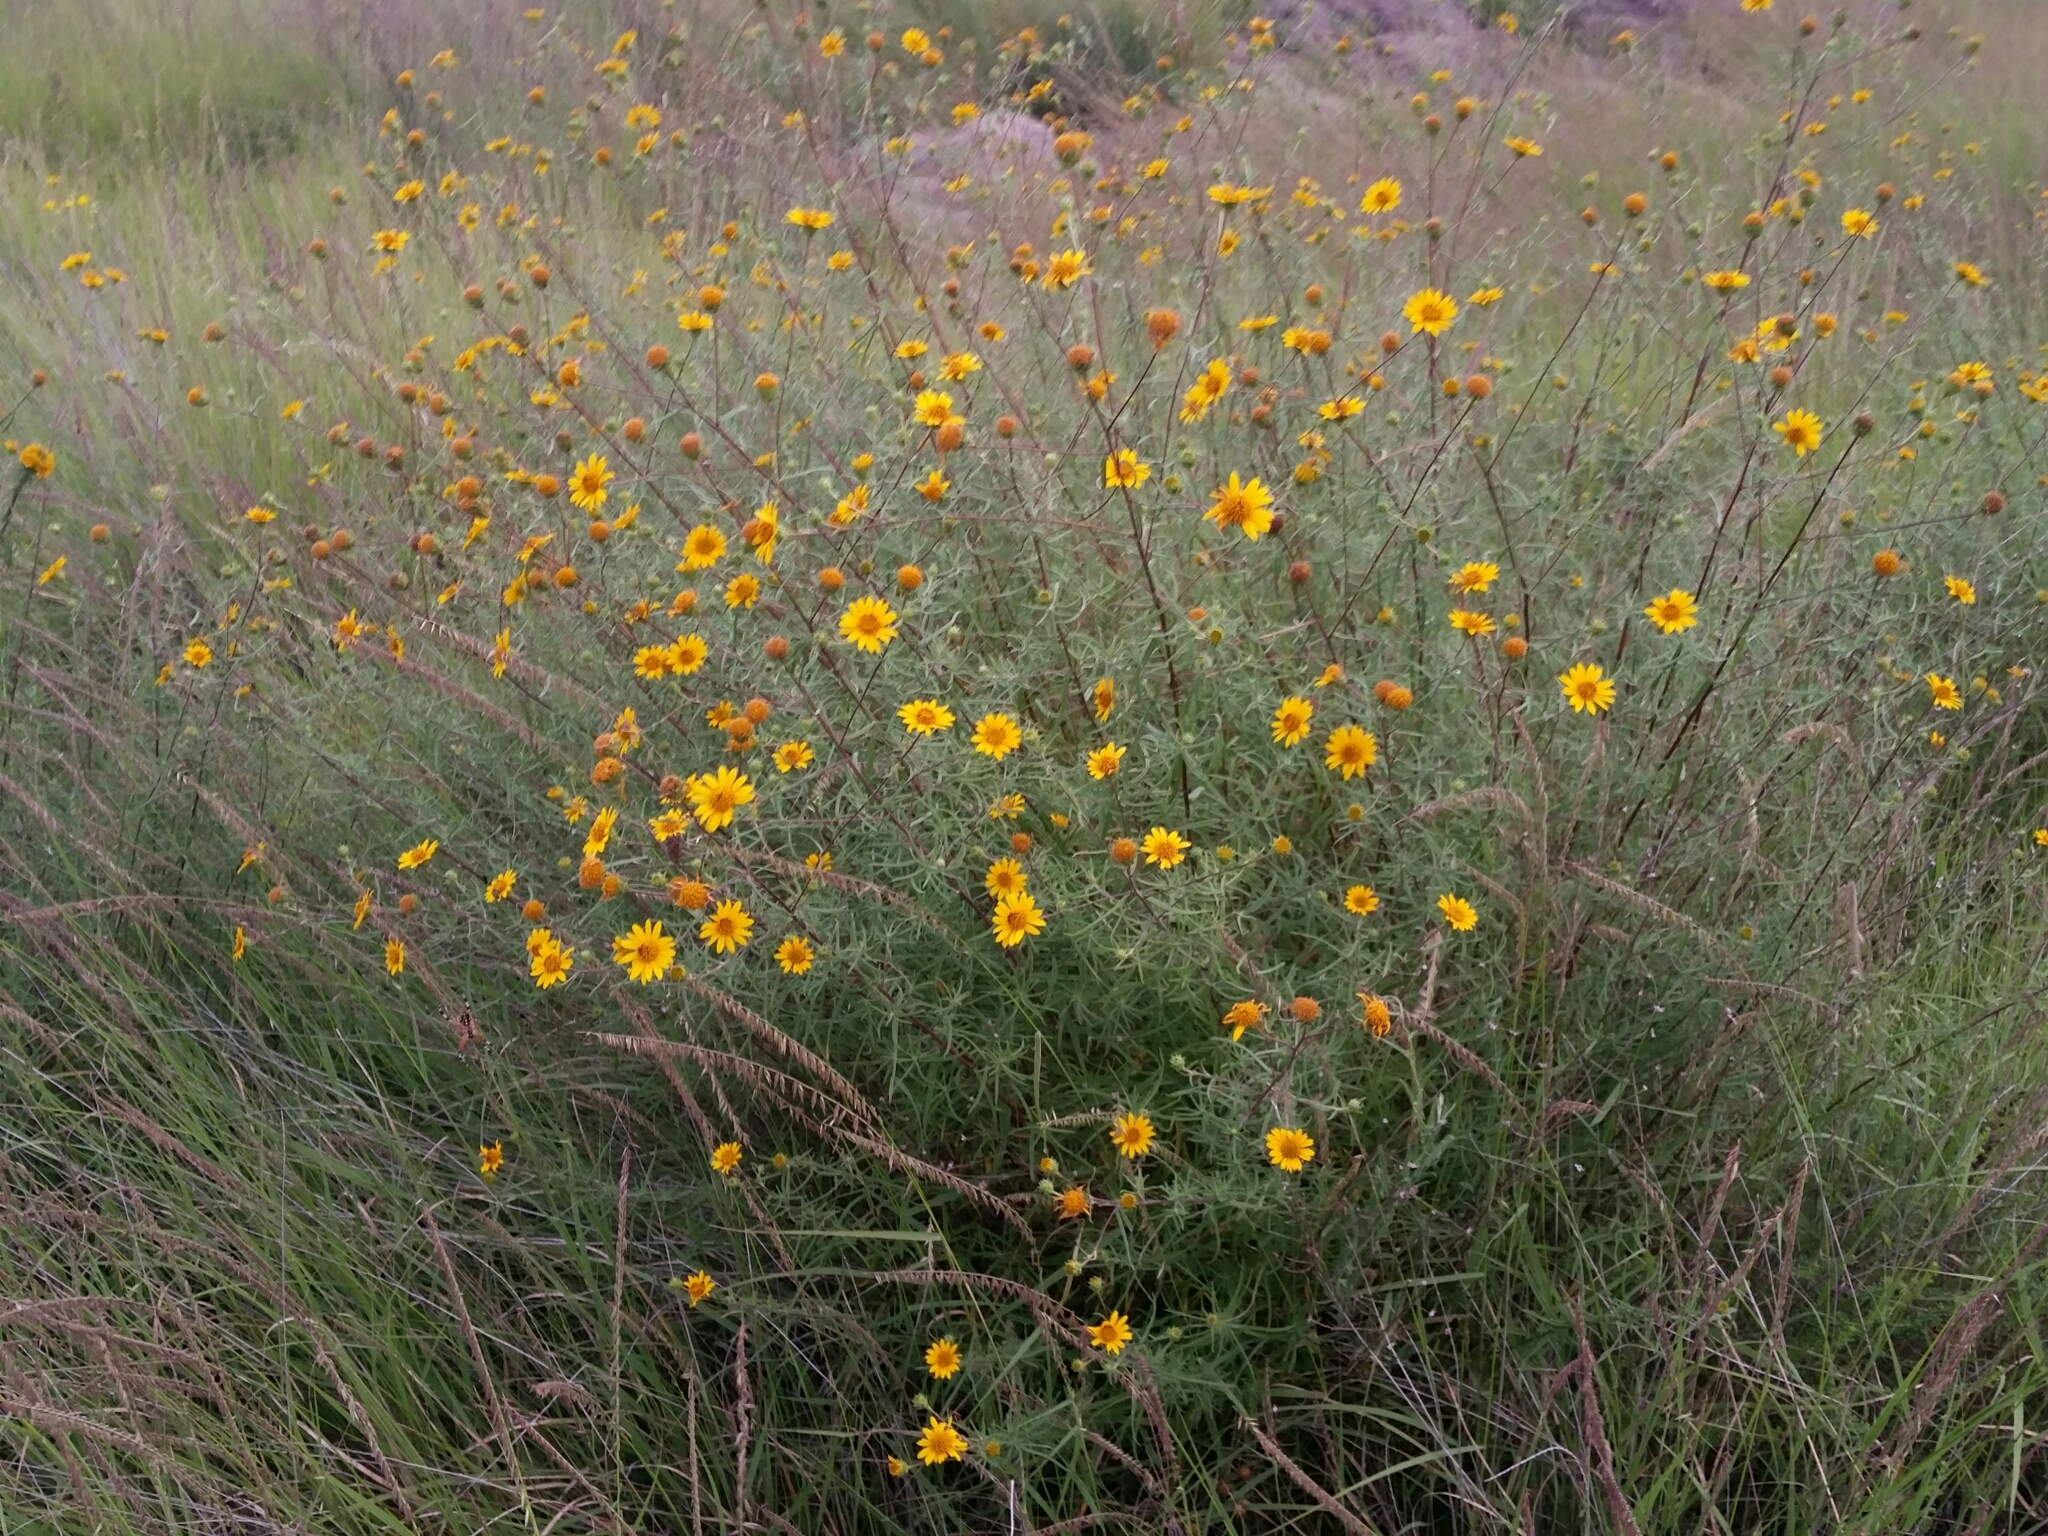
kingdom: Plantae
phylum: Tracheophyta
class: Magnoliopsida
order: Asterales
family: Asteraceae
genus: Aldama
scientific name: Aldama linearis
